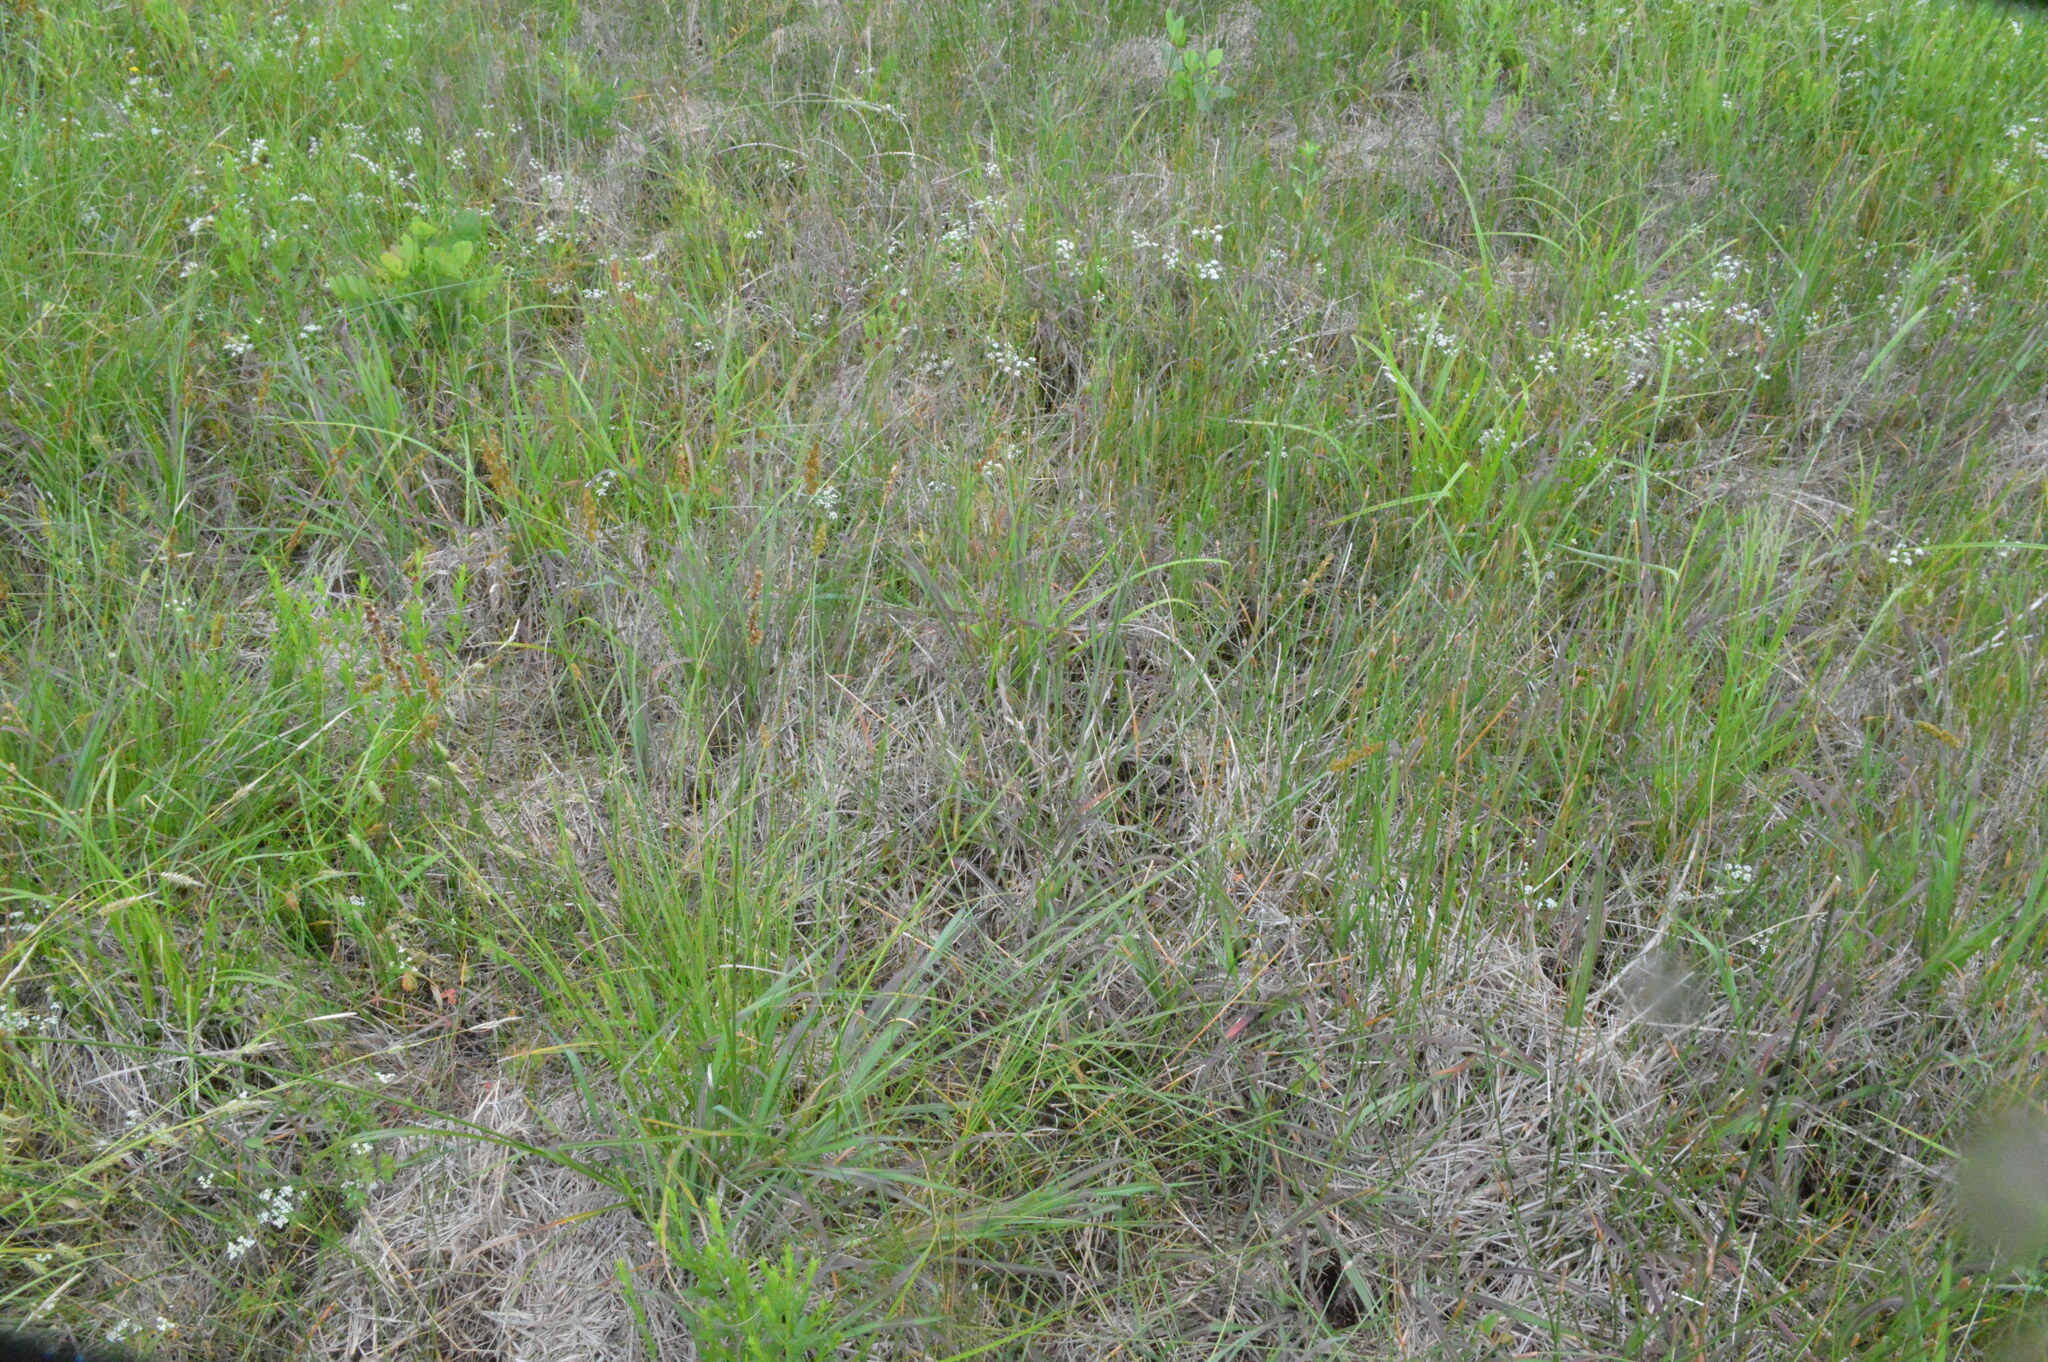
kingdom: Plantae
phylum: Tracheophyta
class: Liliopsida
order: Poales
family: Cyperaceae
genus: Carex
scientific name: Carex triangularis
